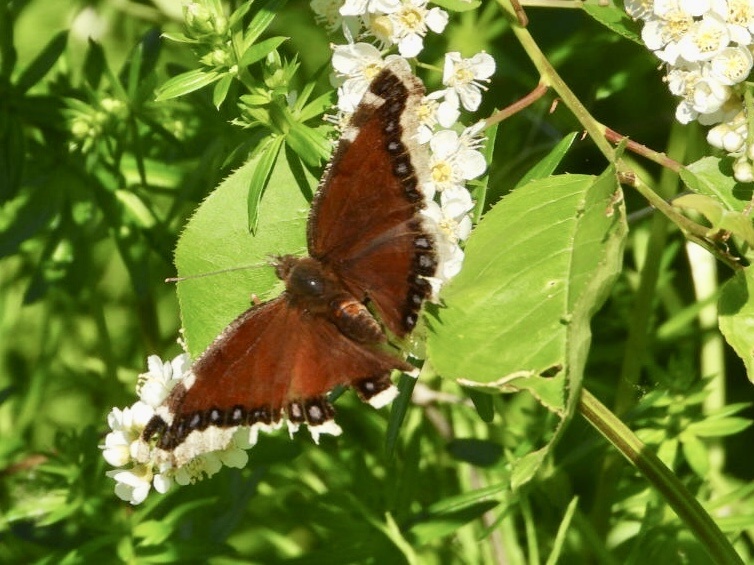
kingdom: Animalia
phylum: Arthropoda
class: Insecta
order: Lepidoptera
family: Nymphalidae
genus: Nymphalis
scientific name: Nymphalis antiopa
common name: Camberwell beauty
